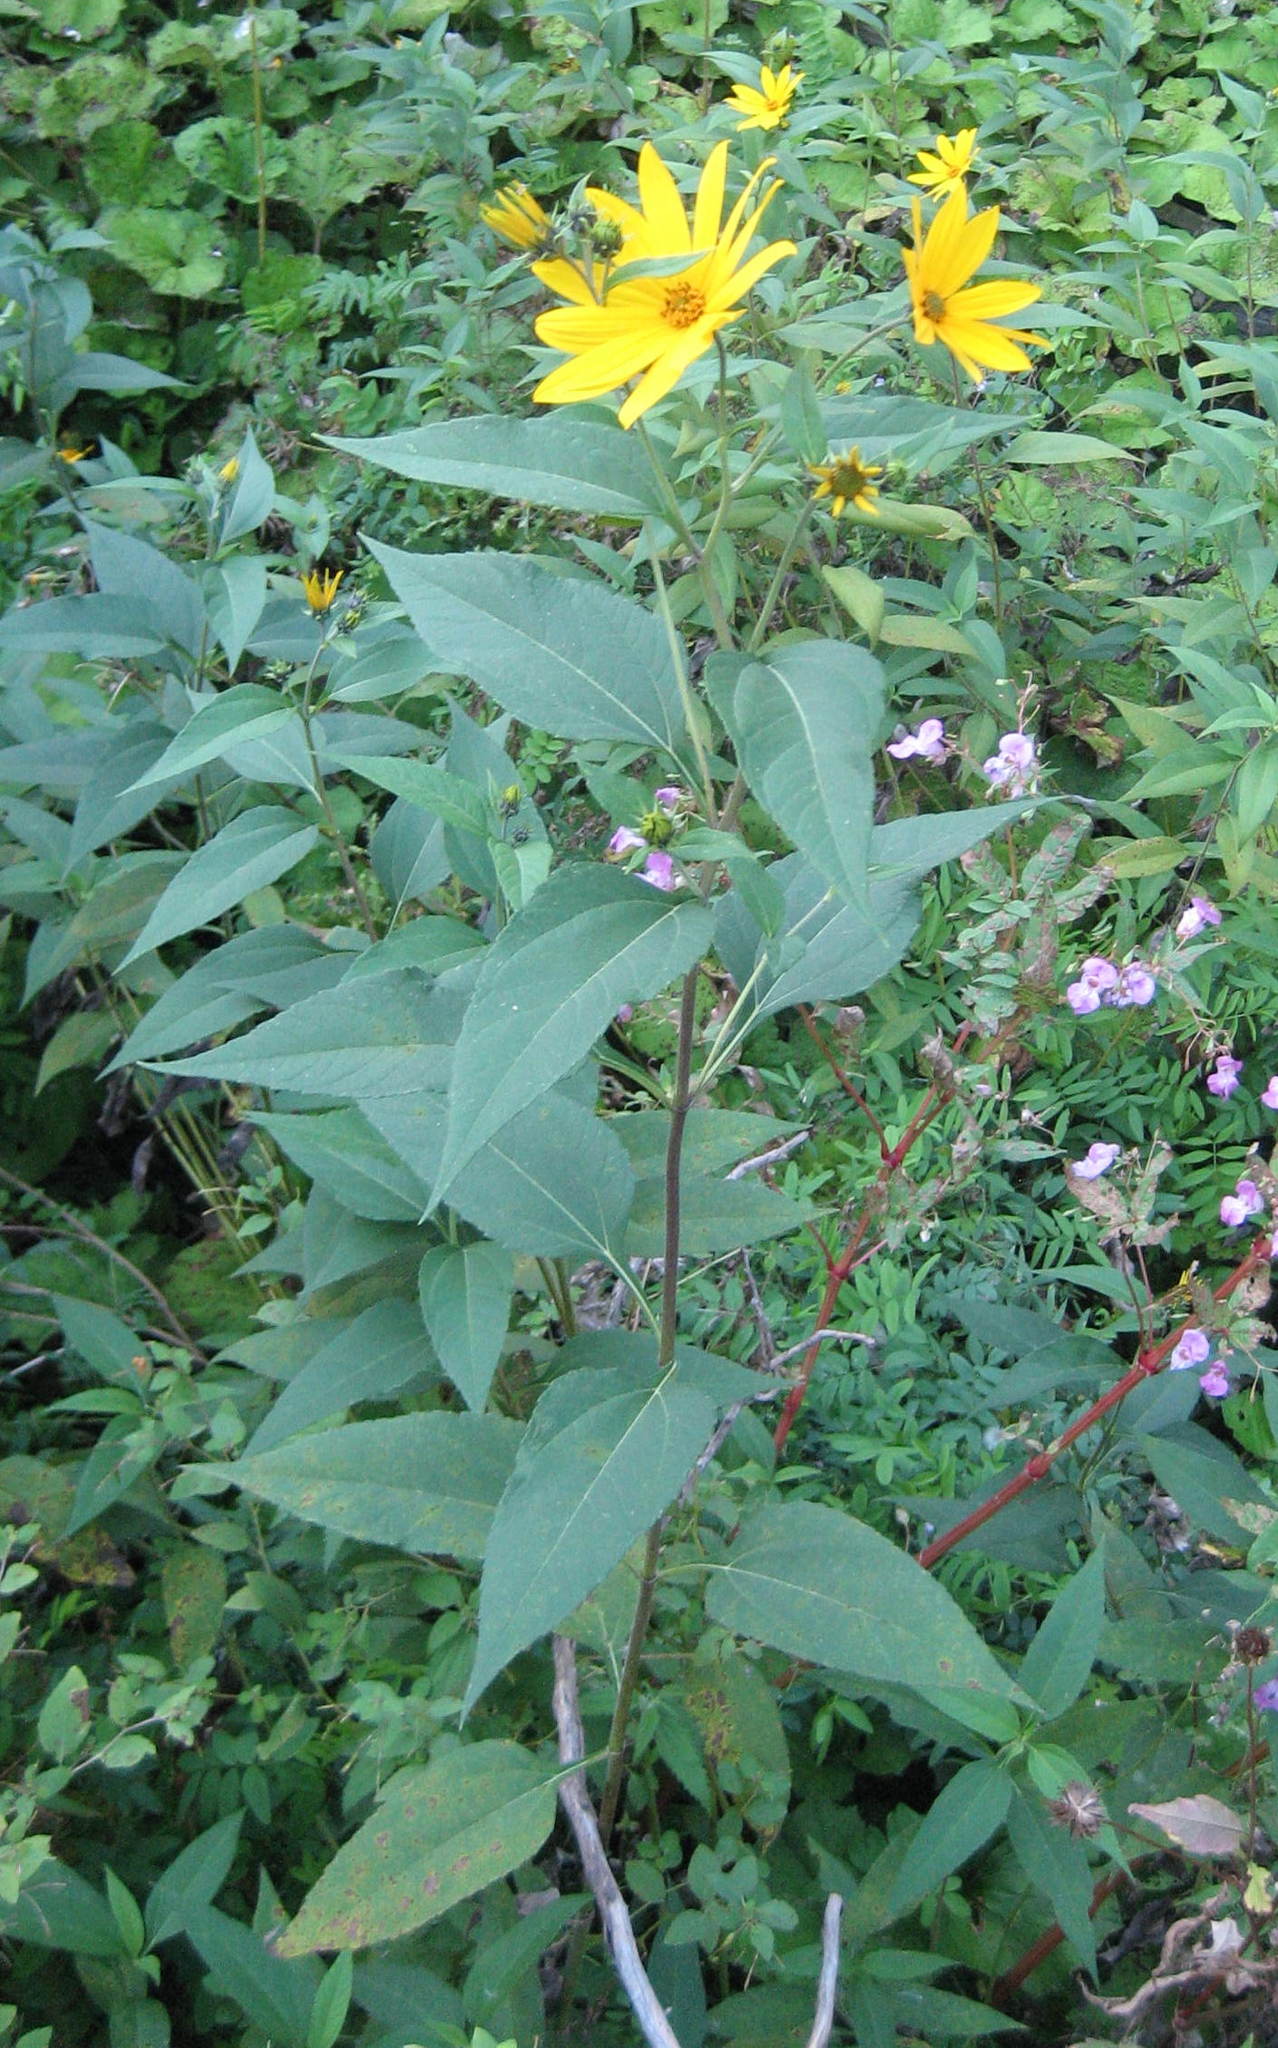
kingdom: Plantae
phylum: Tracheophyta
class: Magnoliopsida
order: Asterales
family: Asteraceae
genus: Helianthus
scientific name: Helianthus tuberosus
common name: Jerusalem artichoke
